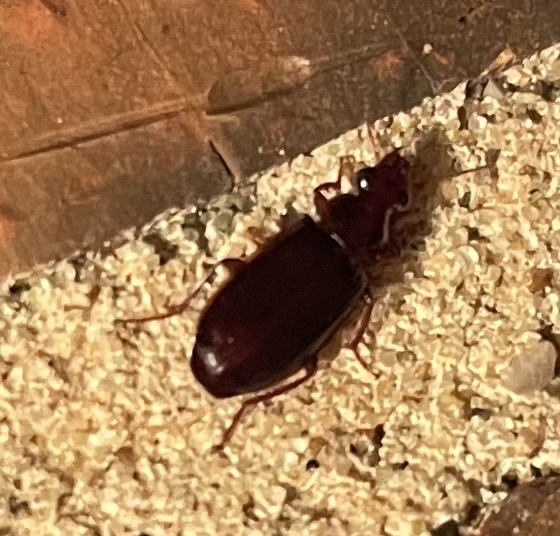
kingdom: Animalia
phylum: Arthropoda
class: Insecta
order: Coleoptera
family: Carabidae
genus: Plochionus
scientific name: Plochionus timidus
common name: Timid harp ground beetle
